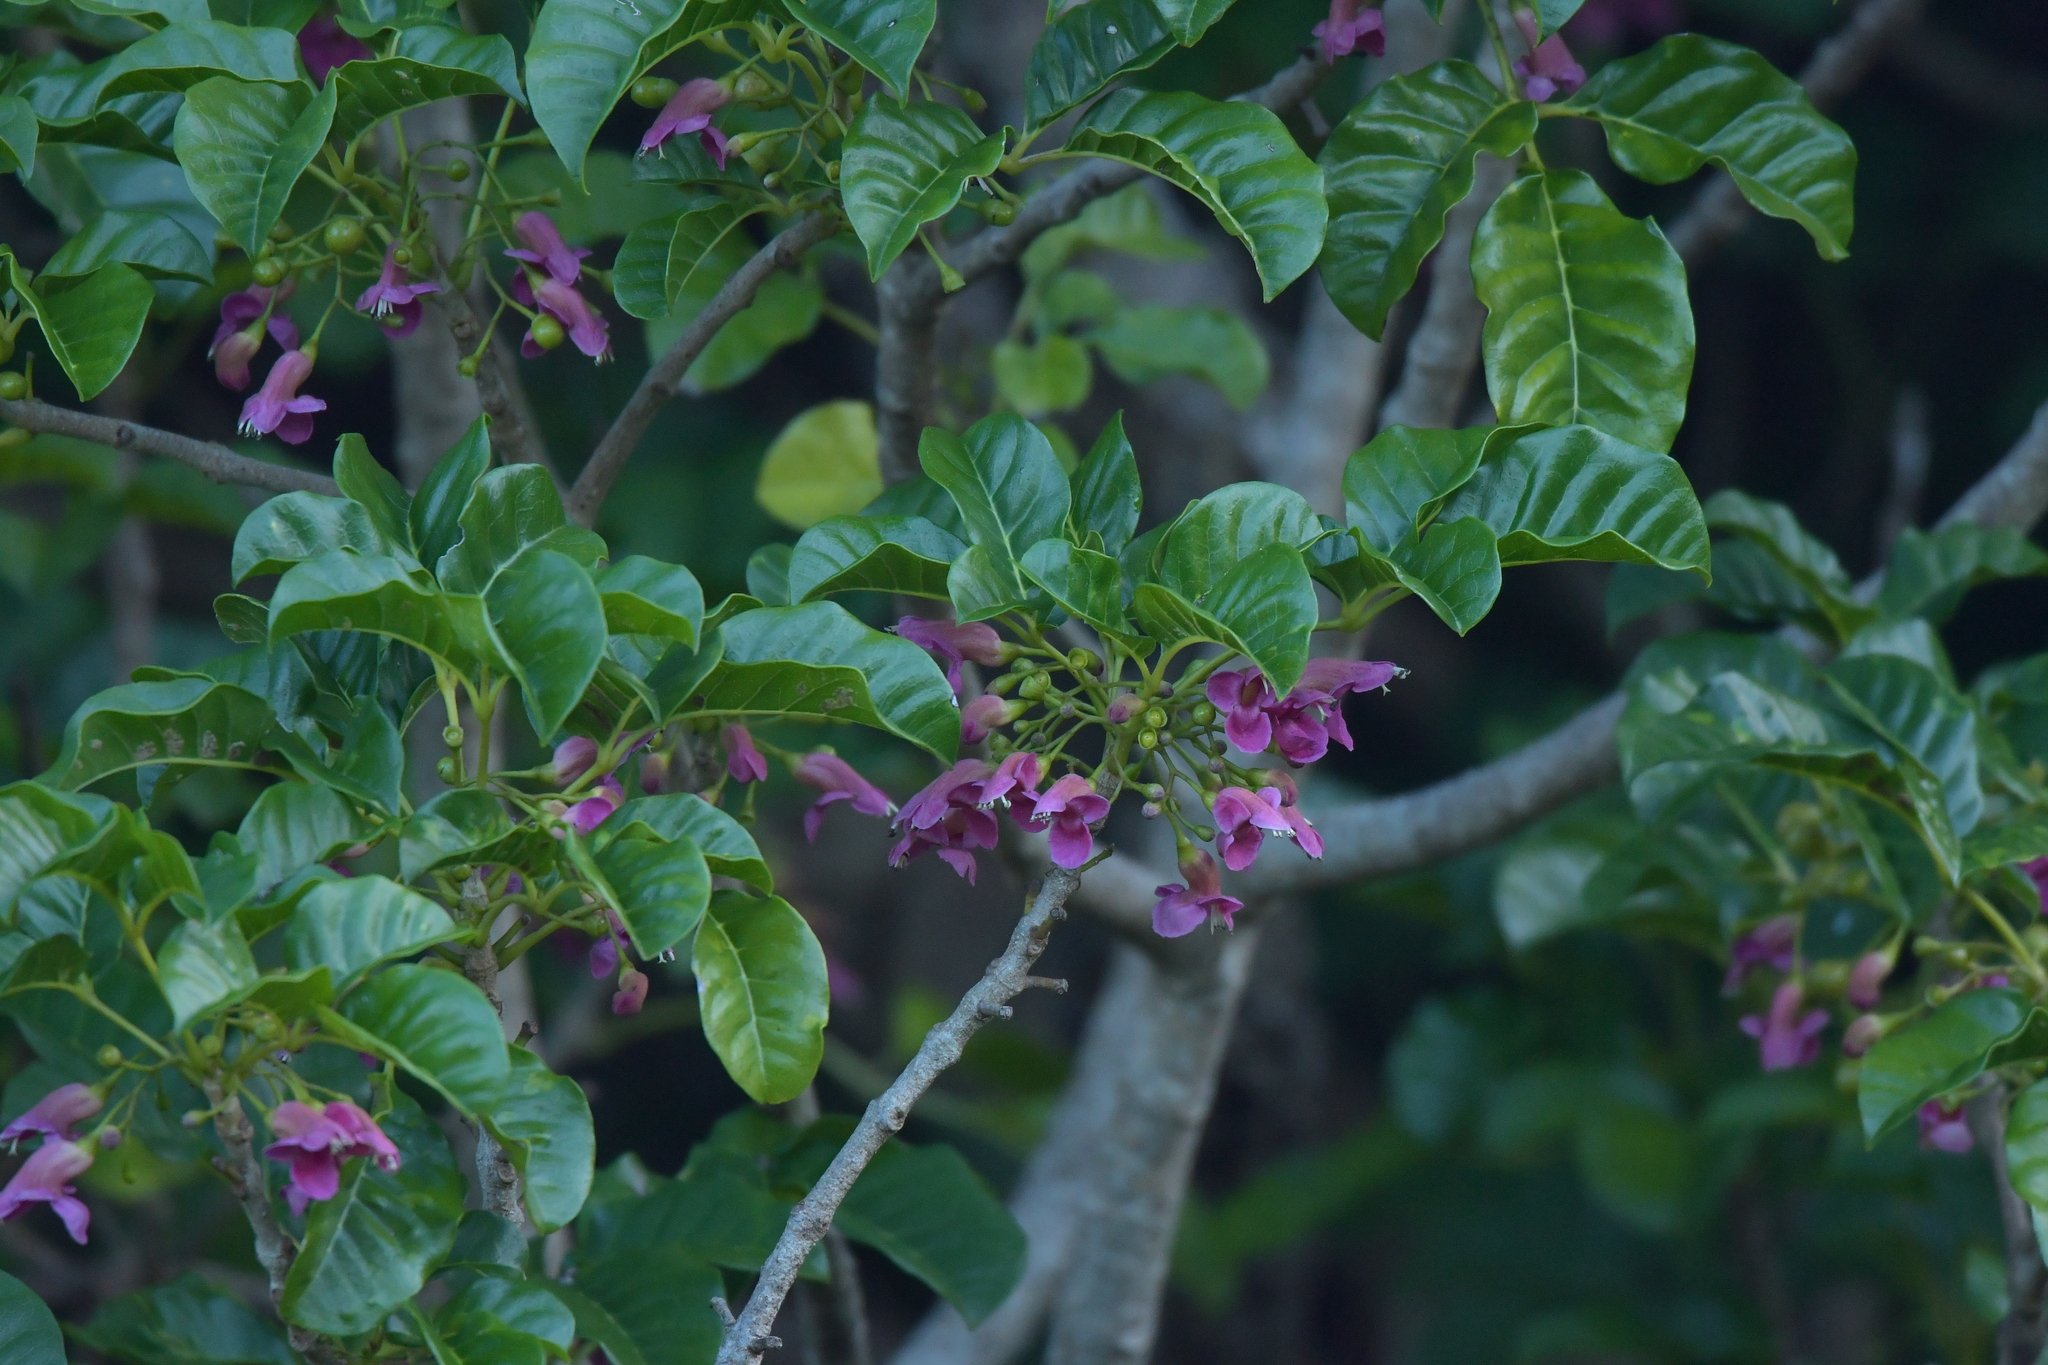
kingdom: Plantae
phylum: Tracheophyta
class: Magnoliopsida
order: Lamiales
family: Lamiaceae
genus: Vitex
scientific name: Vitex lucens
